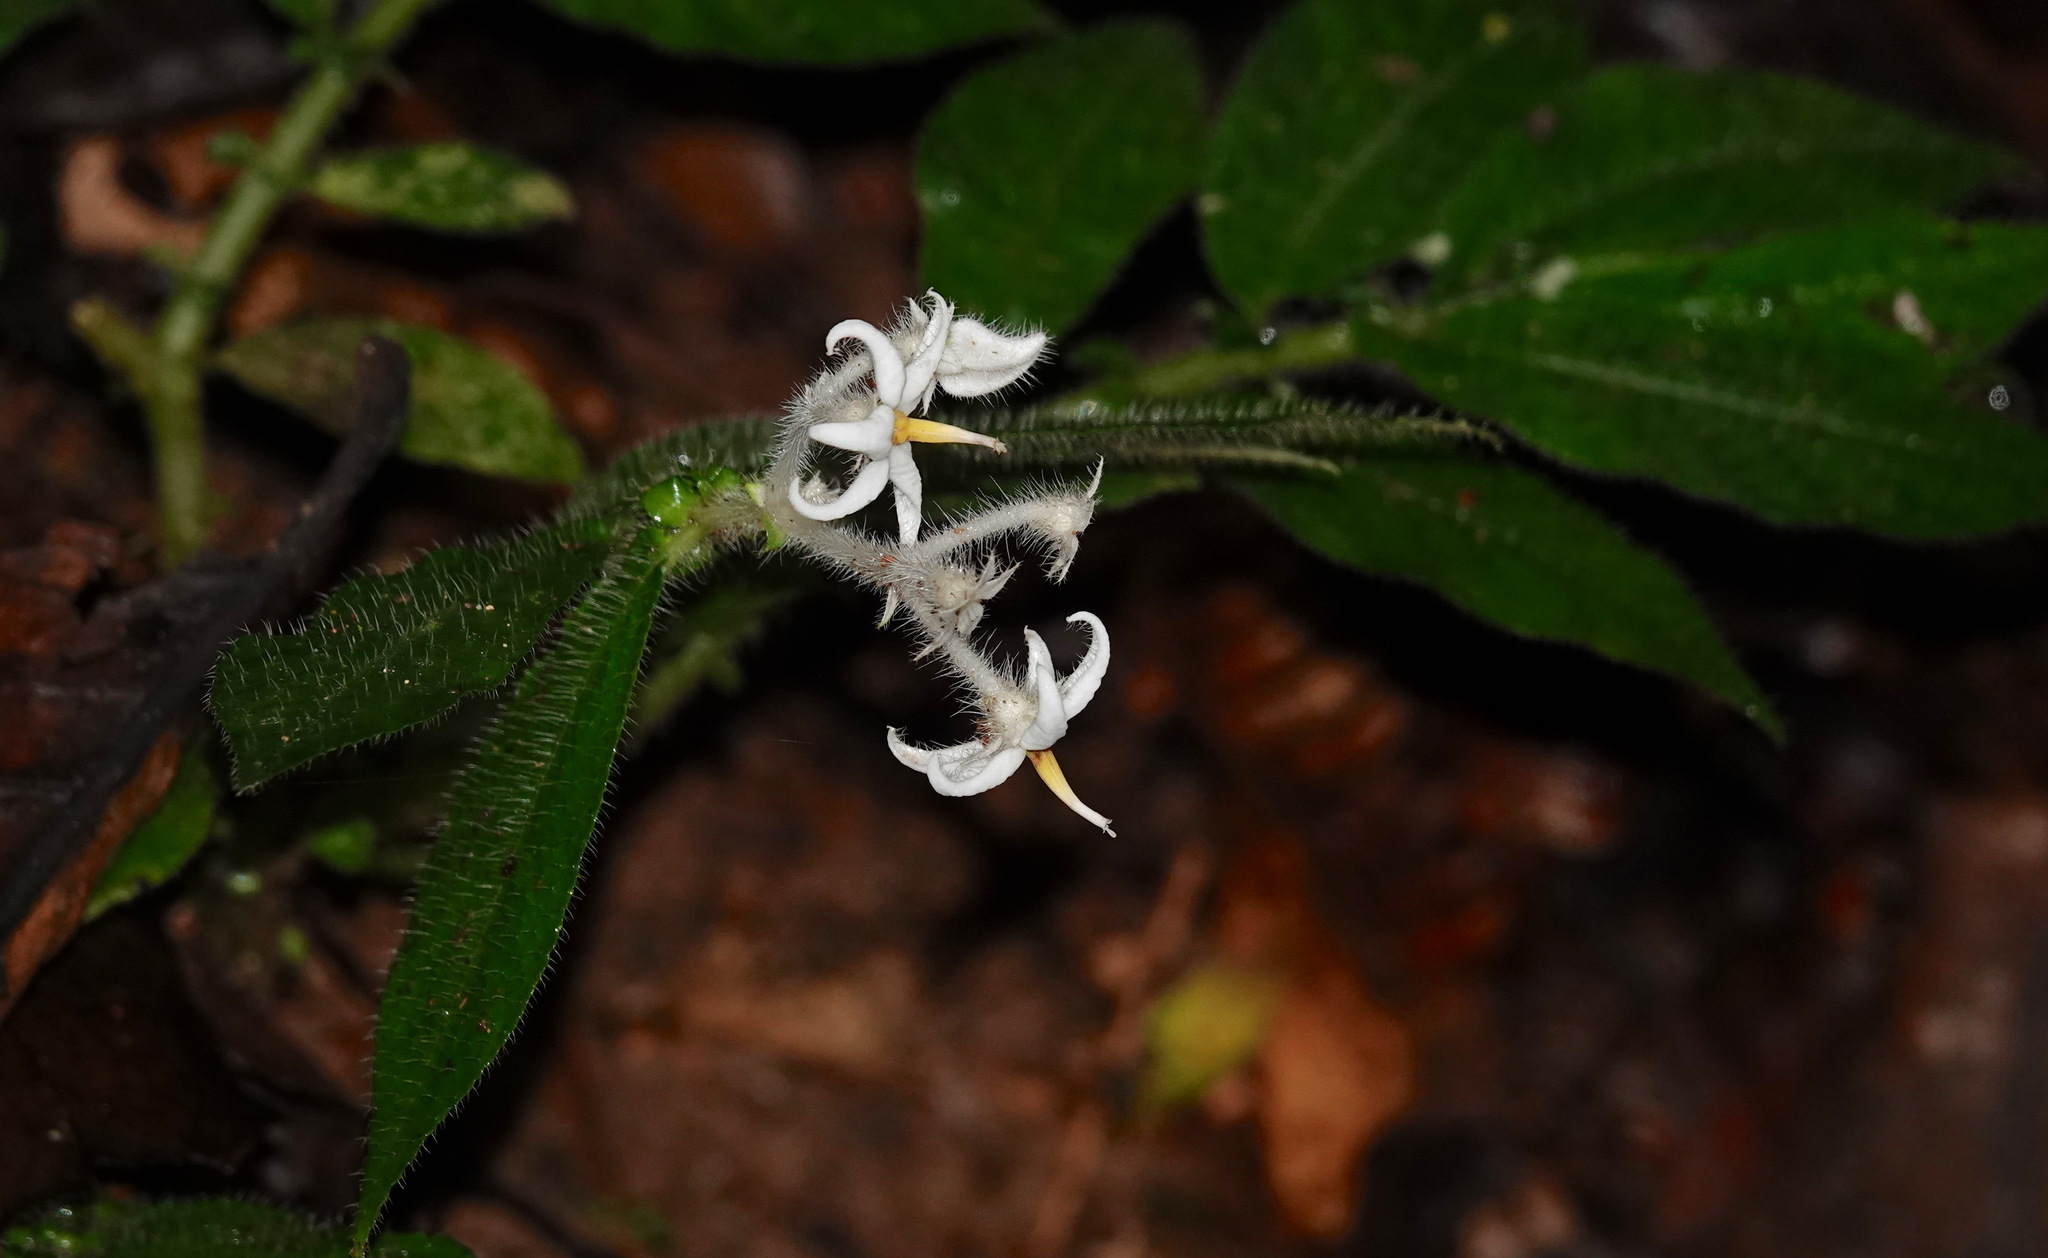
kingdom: Plantae
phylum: Tracheophyta
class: Magnoliopsida
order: Gentianales
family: Rubiaceae
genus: Argostemma
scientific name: Argostemma parvifolium
